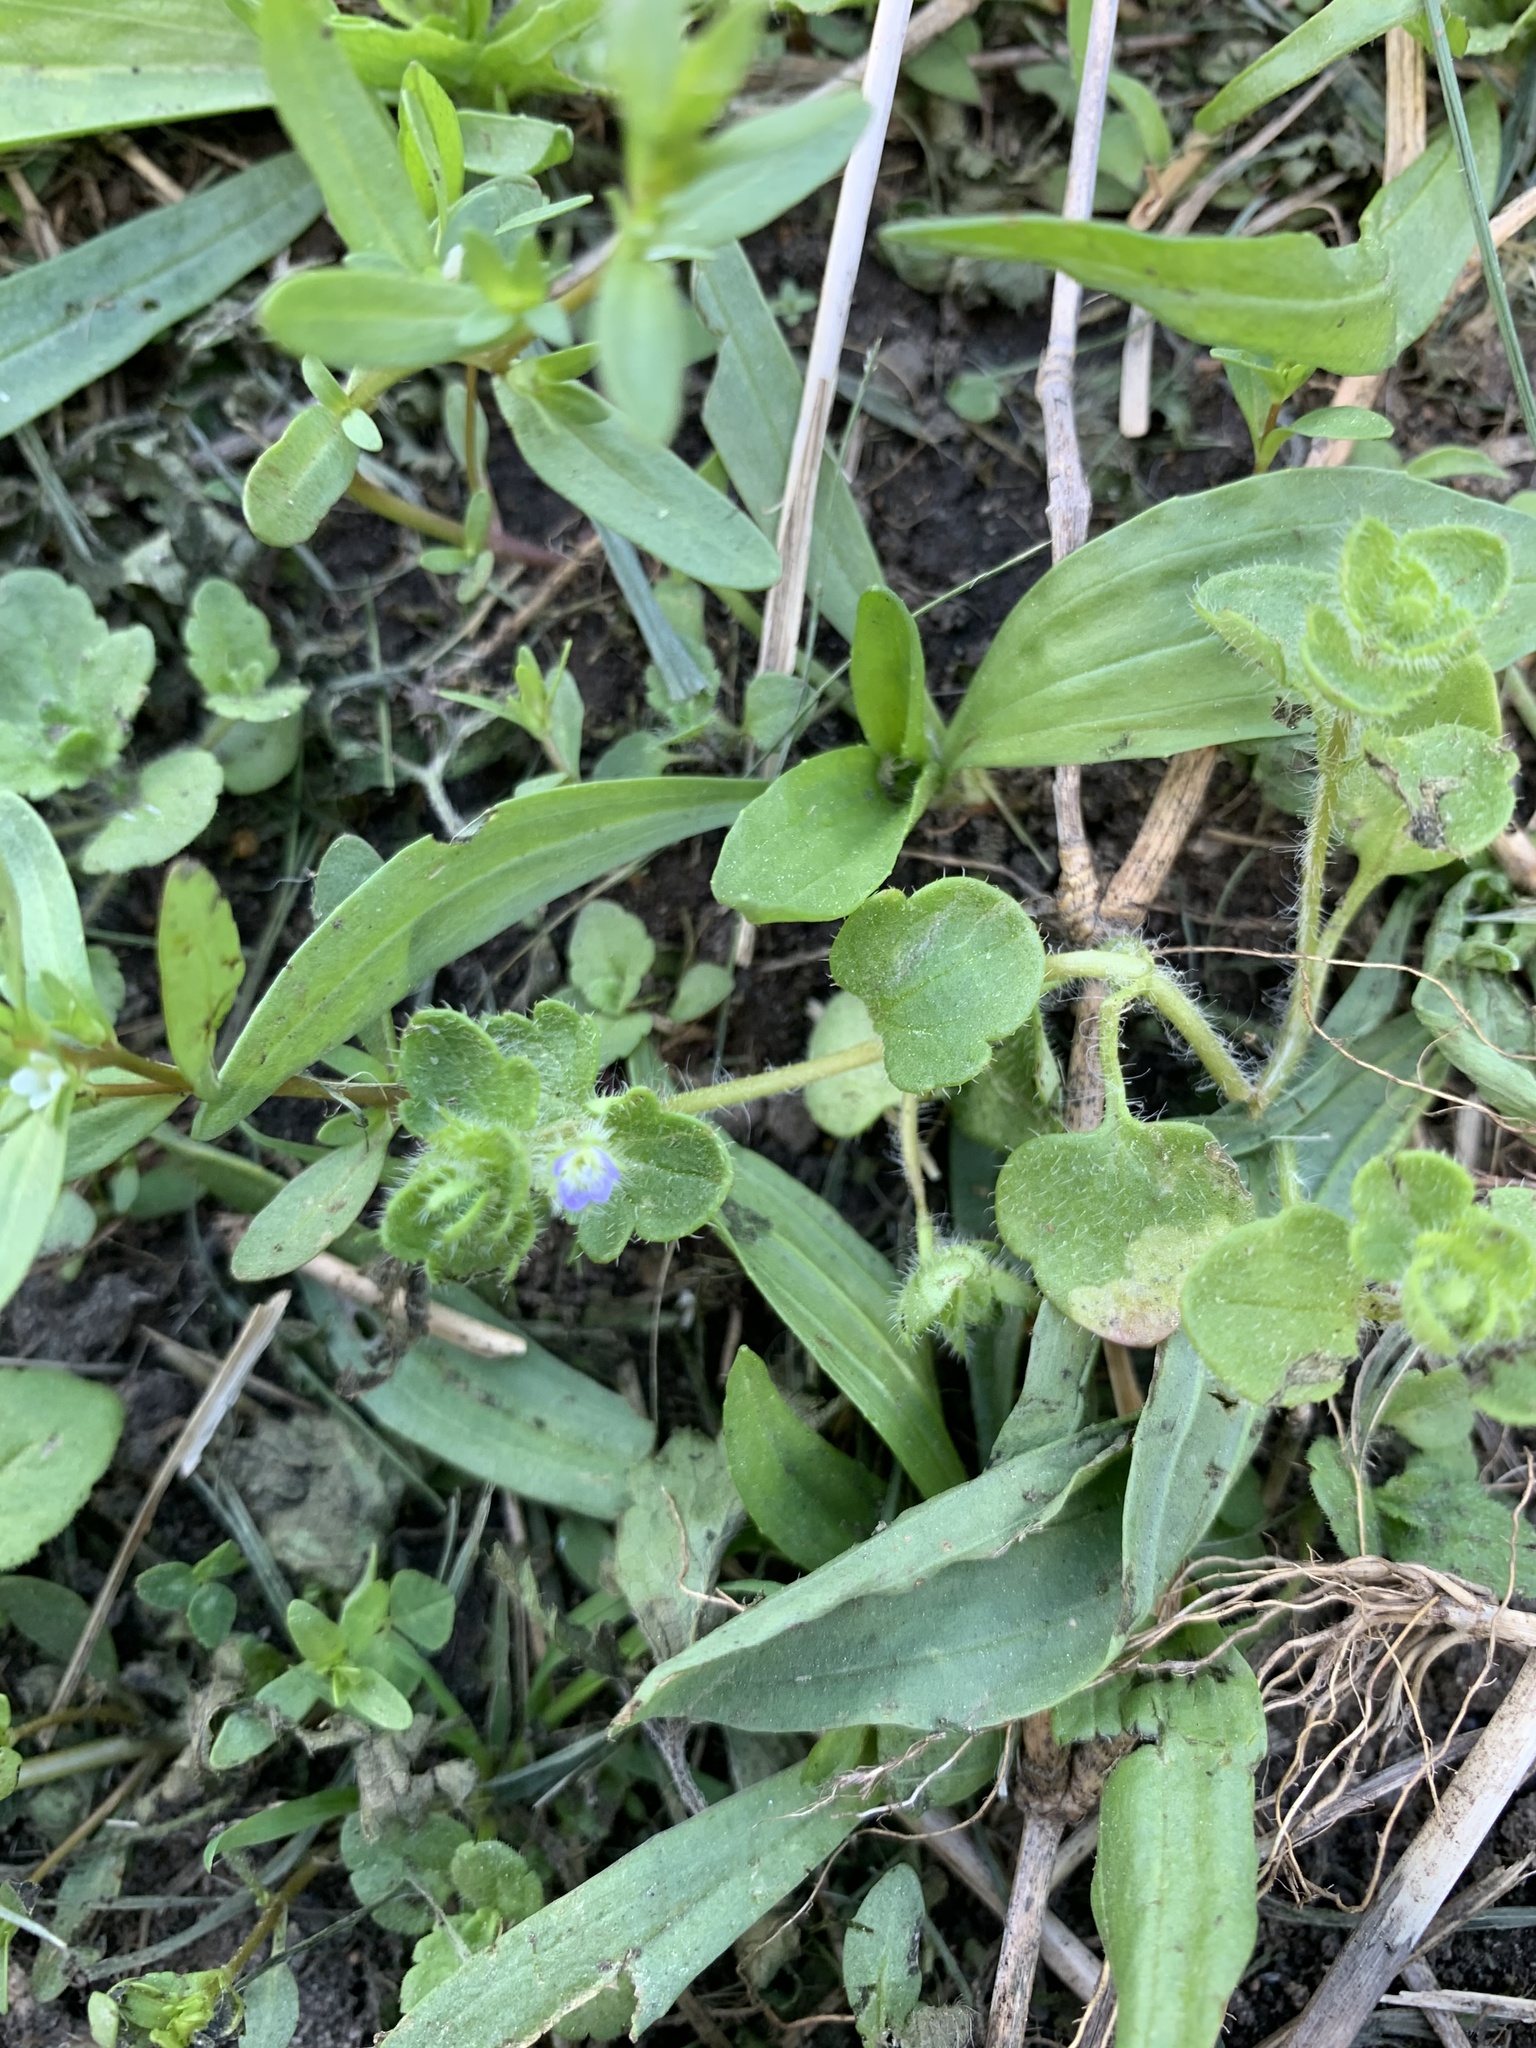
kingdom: Plantae
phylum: Tracheophyta
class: Magnoliopsida
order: Lamiales
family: Plantaginaceae
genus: Veronica
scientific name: Veronica hederifolia
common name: Ivy-leaved speedwell
